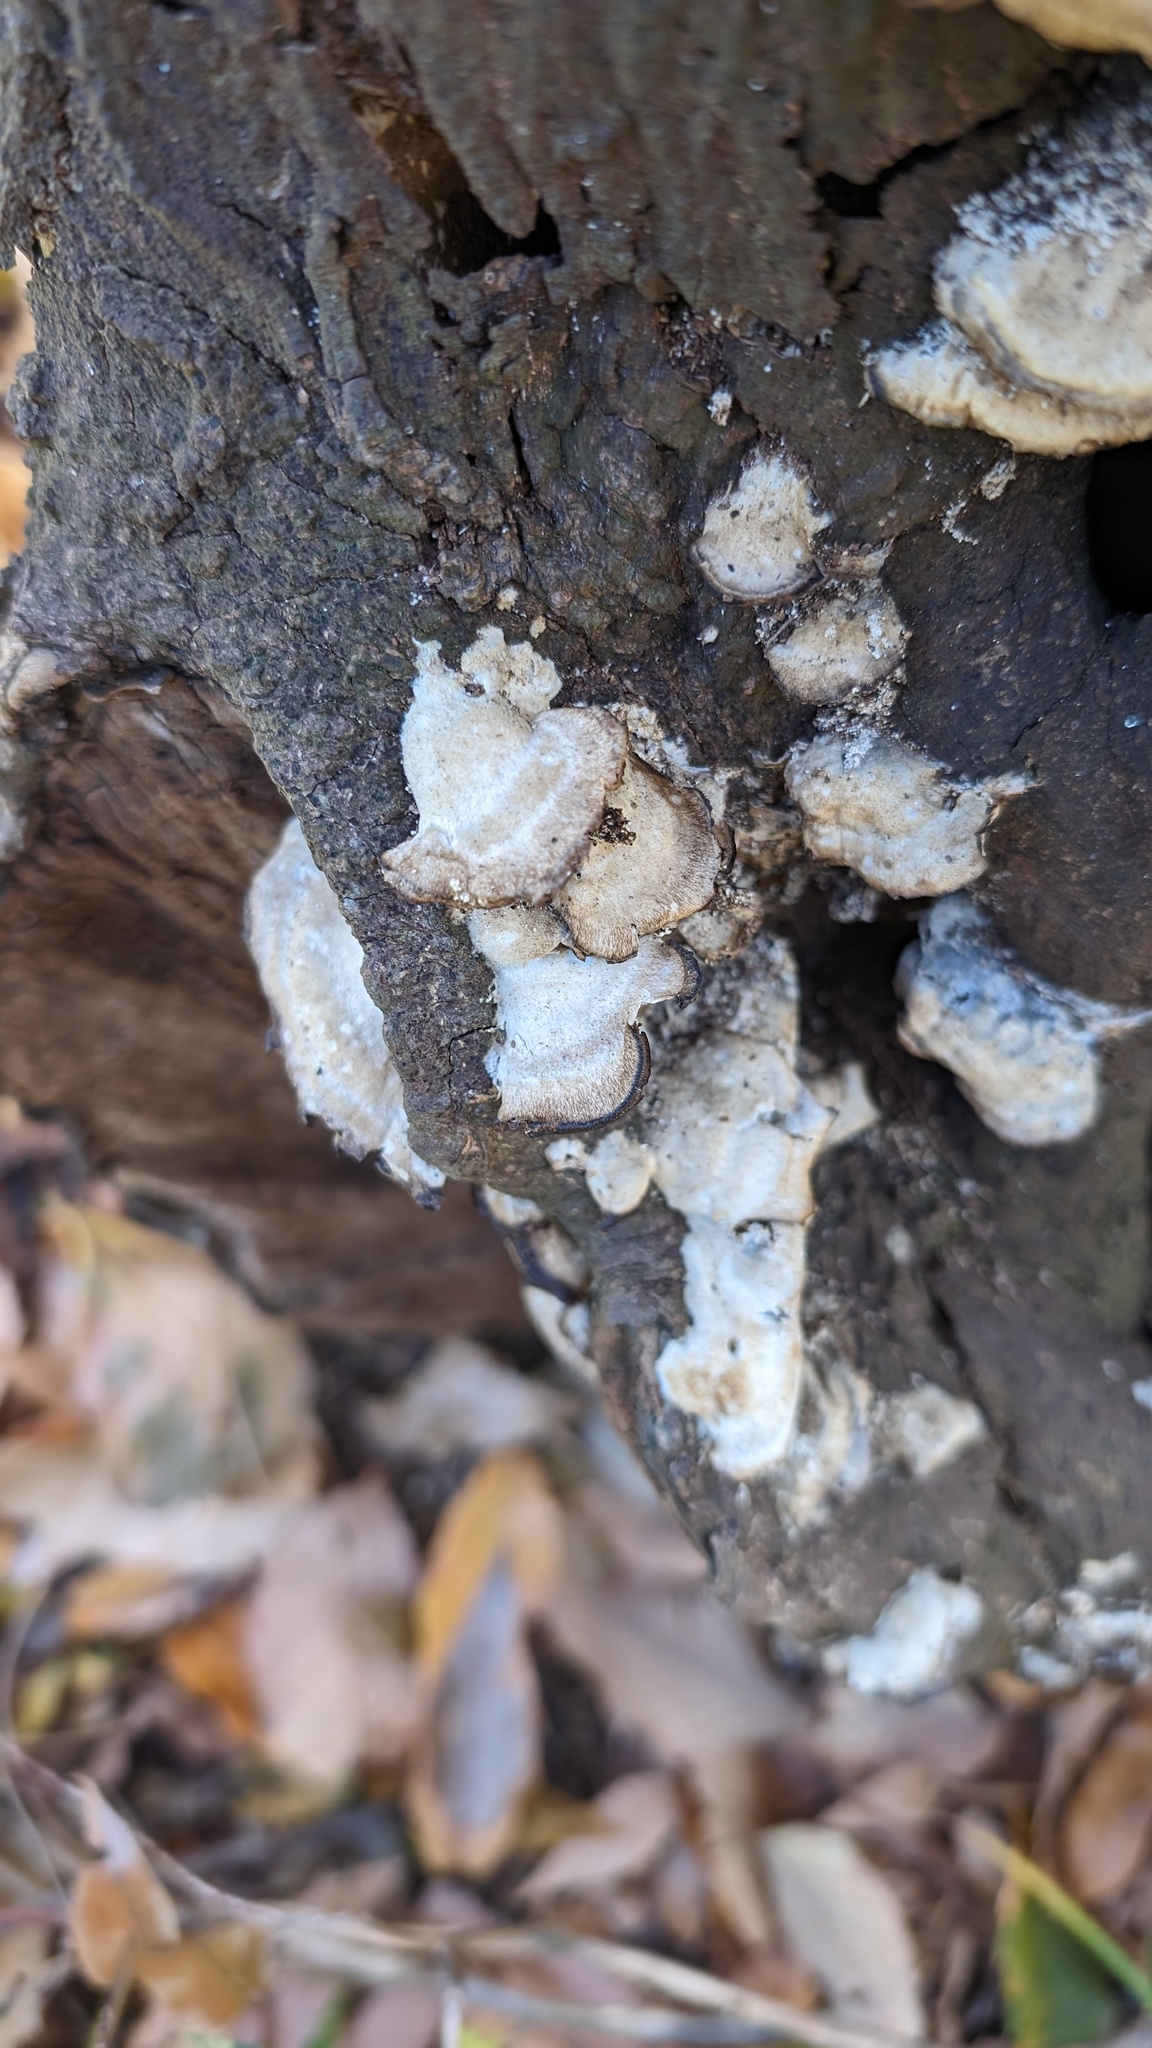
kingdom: Fungi
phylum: Basidiomycota
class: Agaricomycetes
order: Polyporales
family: Phanerochaetaceae
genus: Bjerkandera
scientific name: Bjerkandera adusta
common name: Smoky bracket
